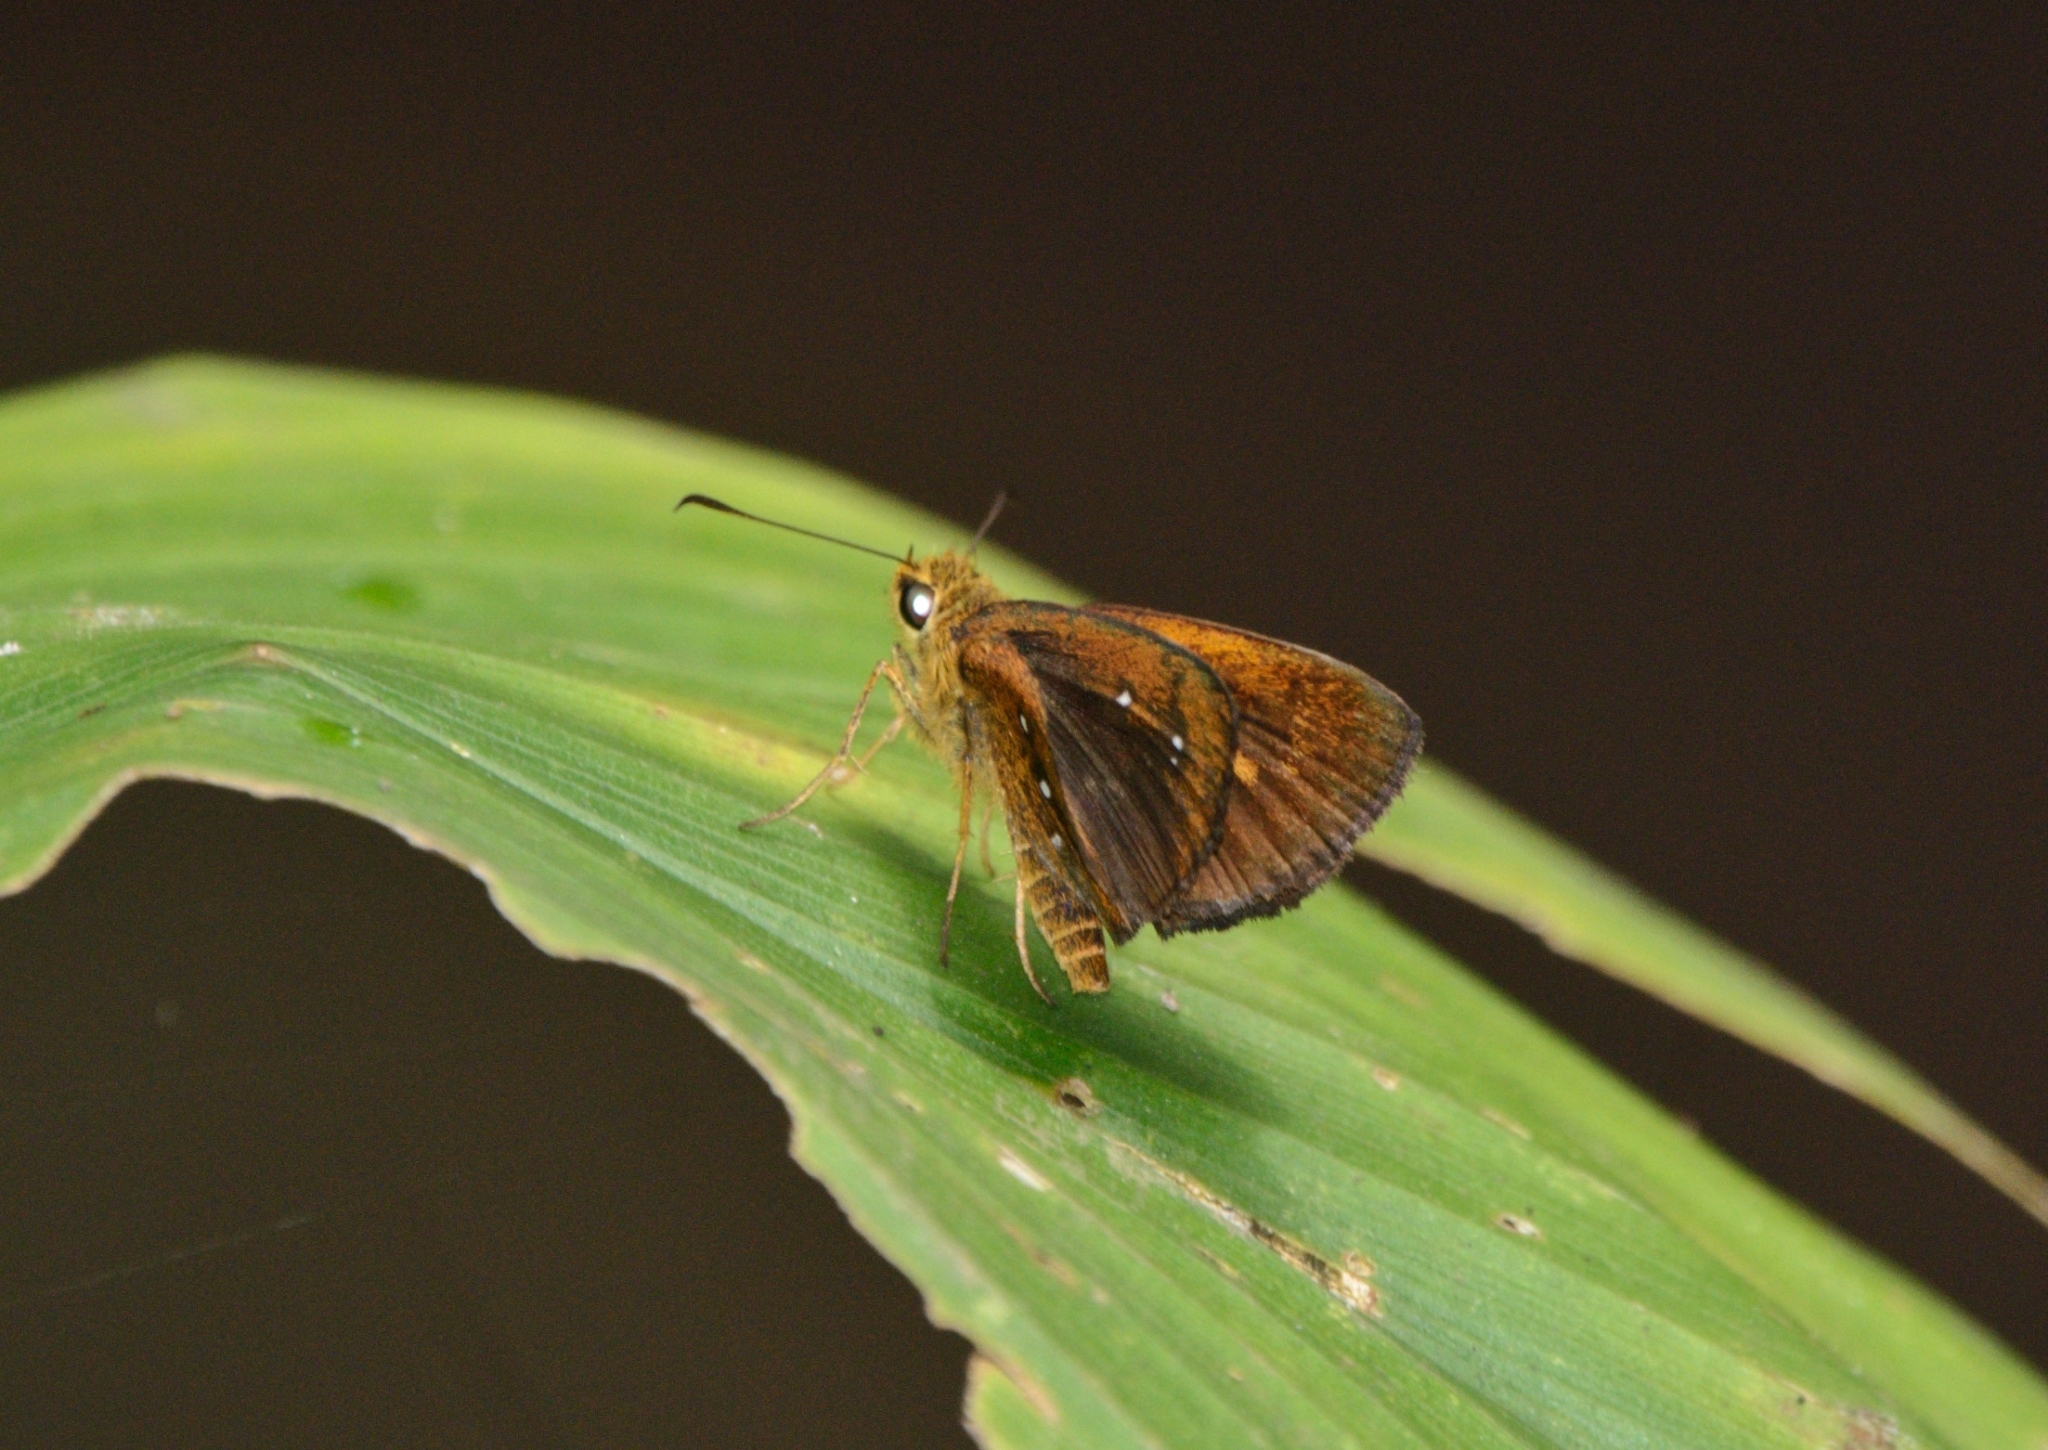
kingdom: Animalia
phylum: Arthropoda
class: Insecta
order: Lepidoptera
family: Hesperiidae
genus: Iambrix
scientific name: Iambrix salsala
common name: Chestnut bob
